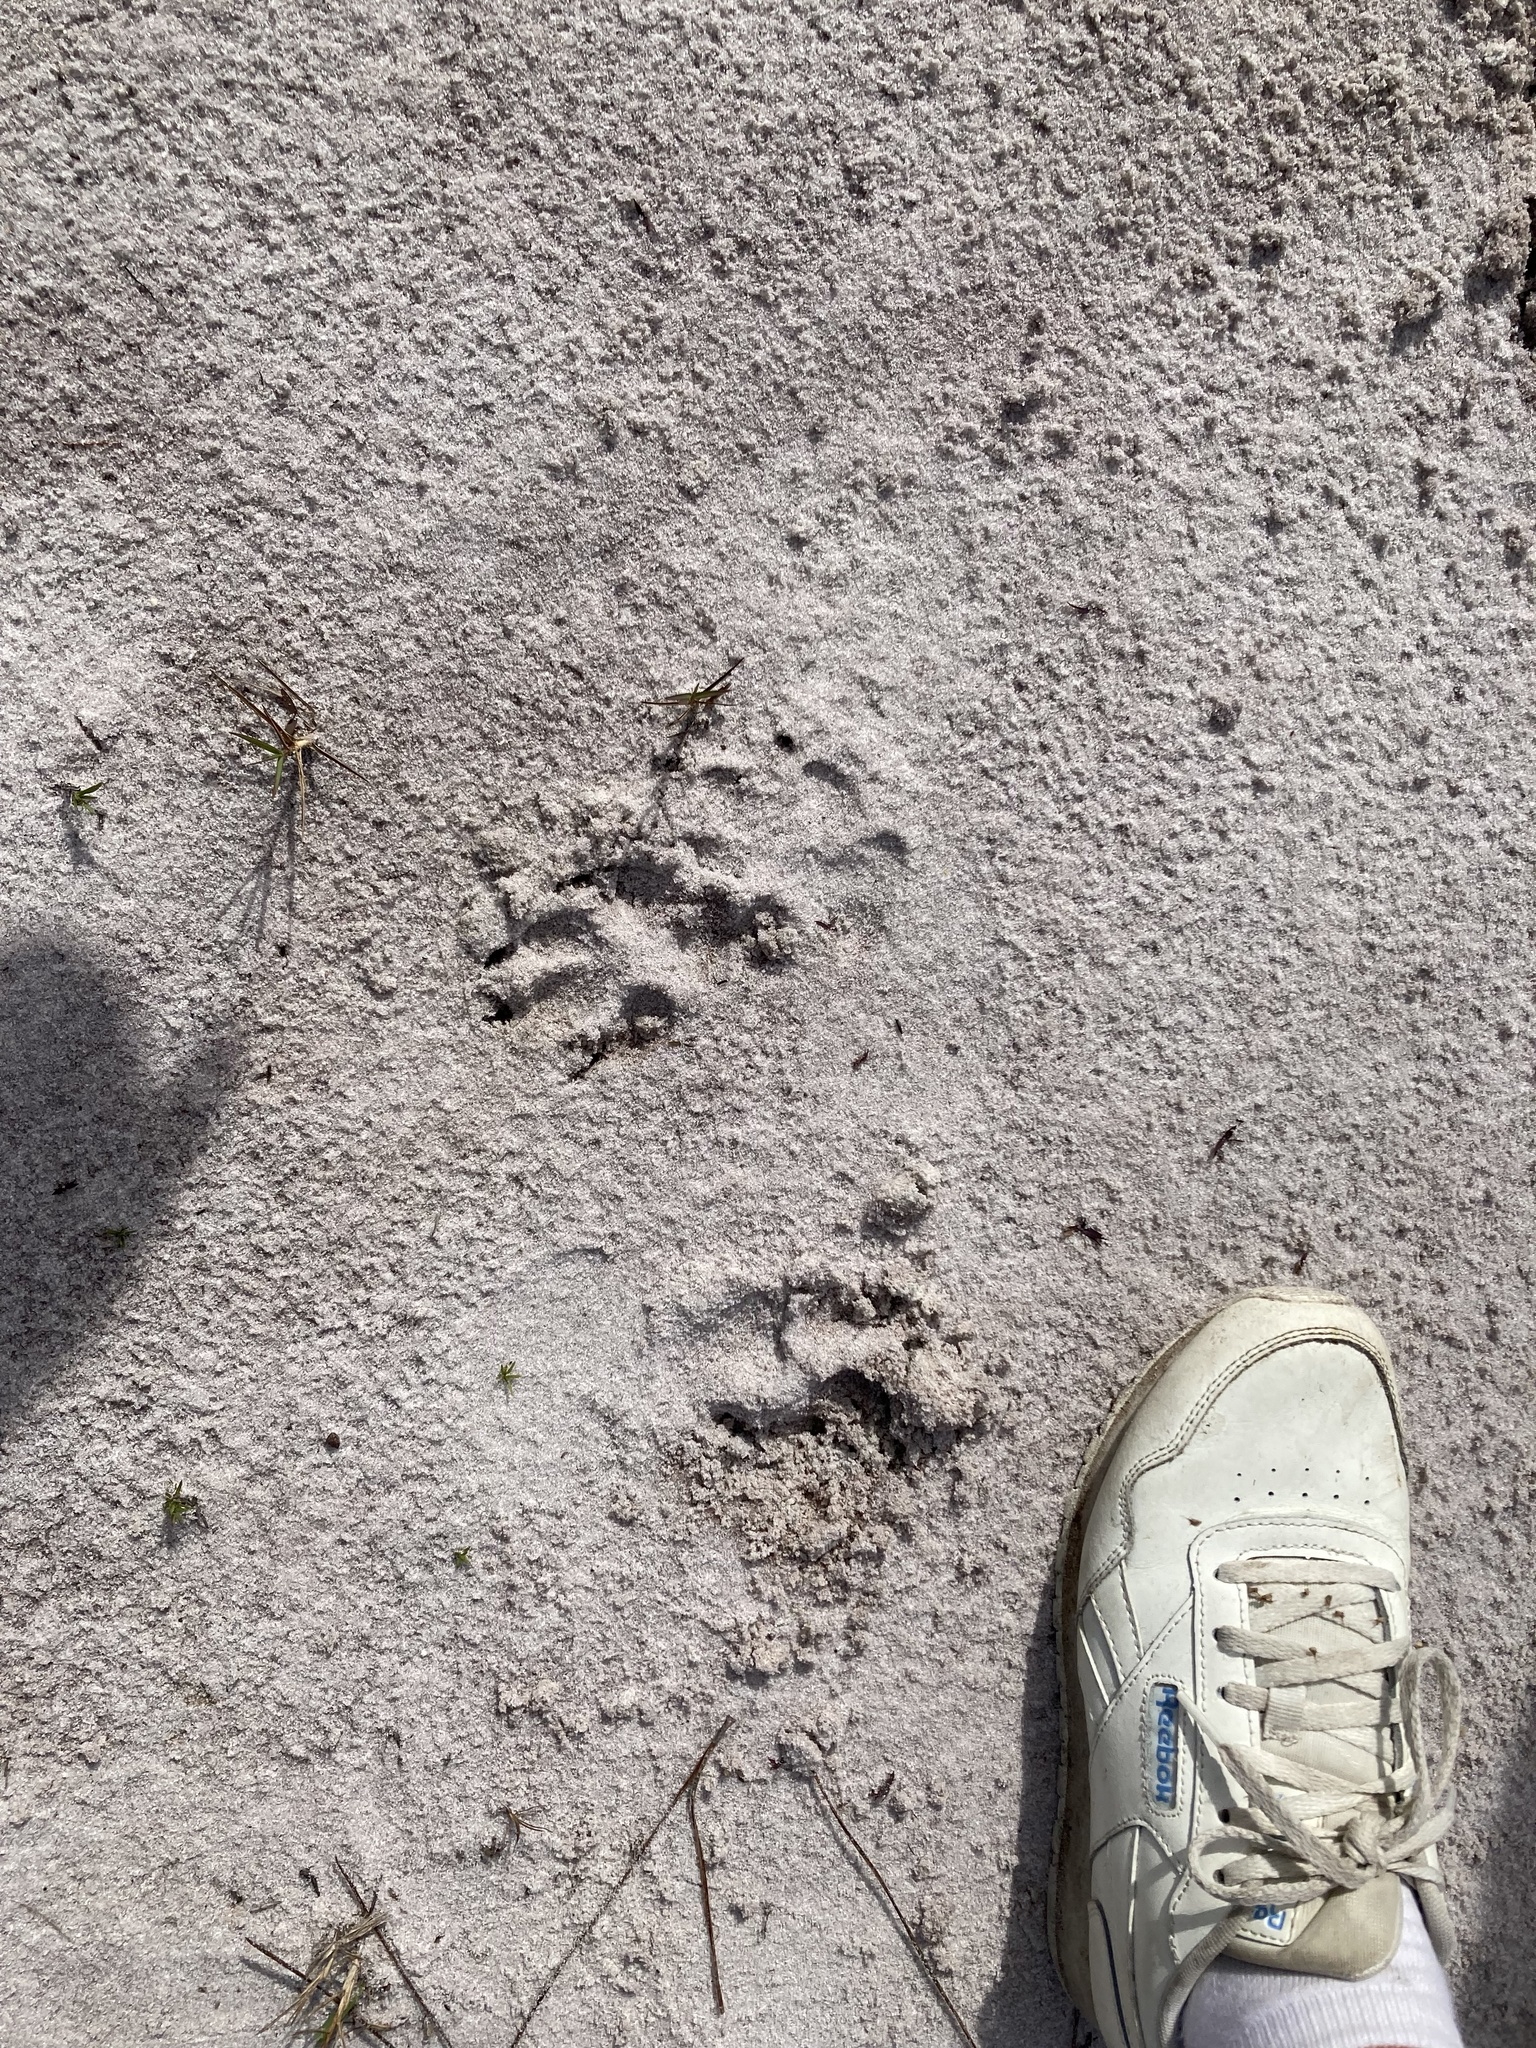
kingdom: Animalia
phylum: Chordata
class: Mammalia
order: Carnivora
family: Canidae
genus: Canis
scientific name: Canis latrans
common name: Coyote
